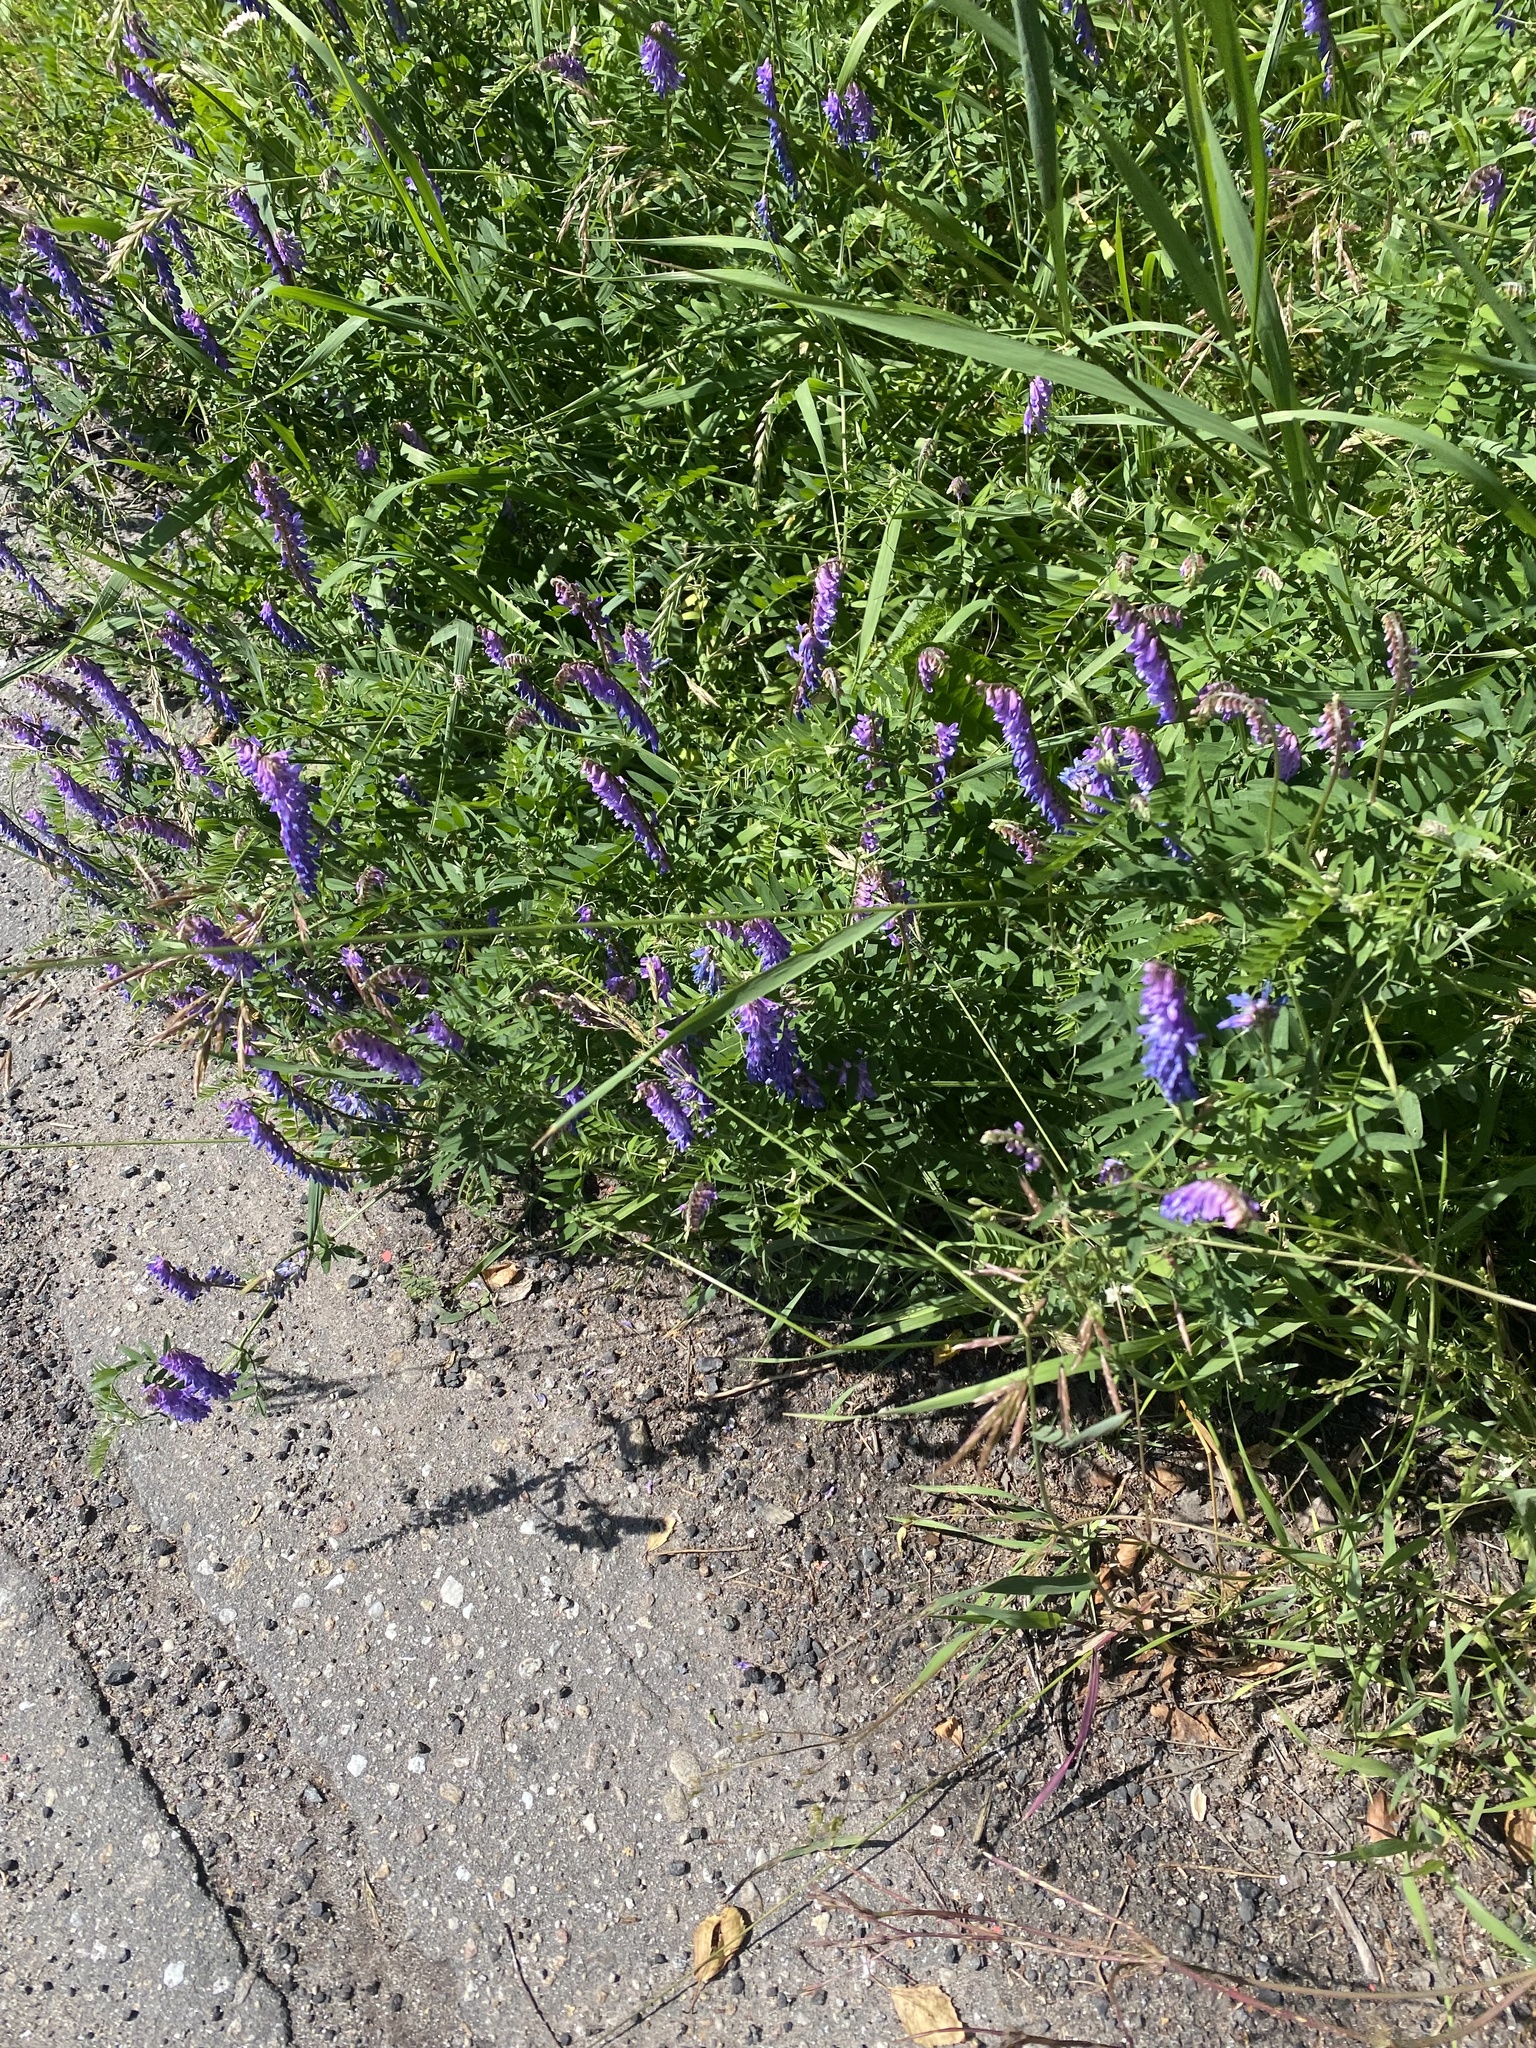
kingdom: Plantae
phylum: Tracheophyta
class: Magnoliopsida
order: Fabales
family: Fabaceae
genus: Vicia
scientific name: Vicia cracca
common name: Bird vetch
